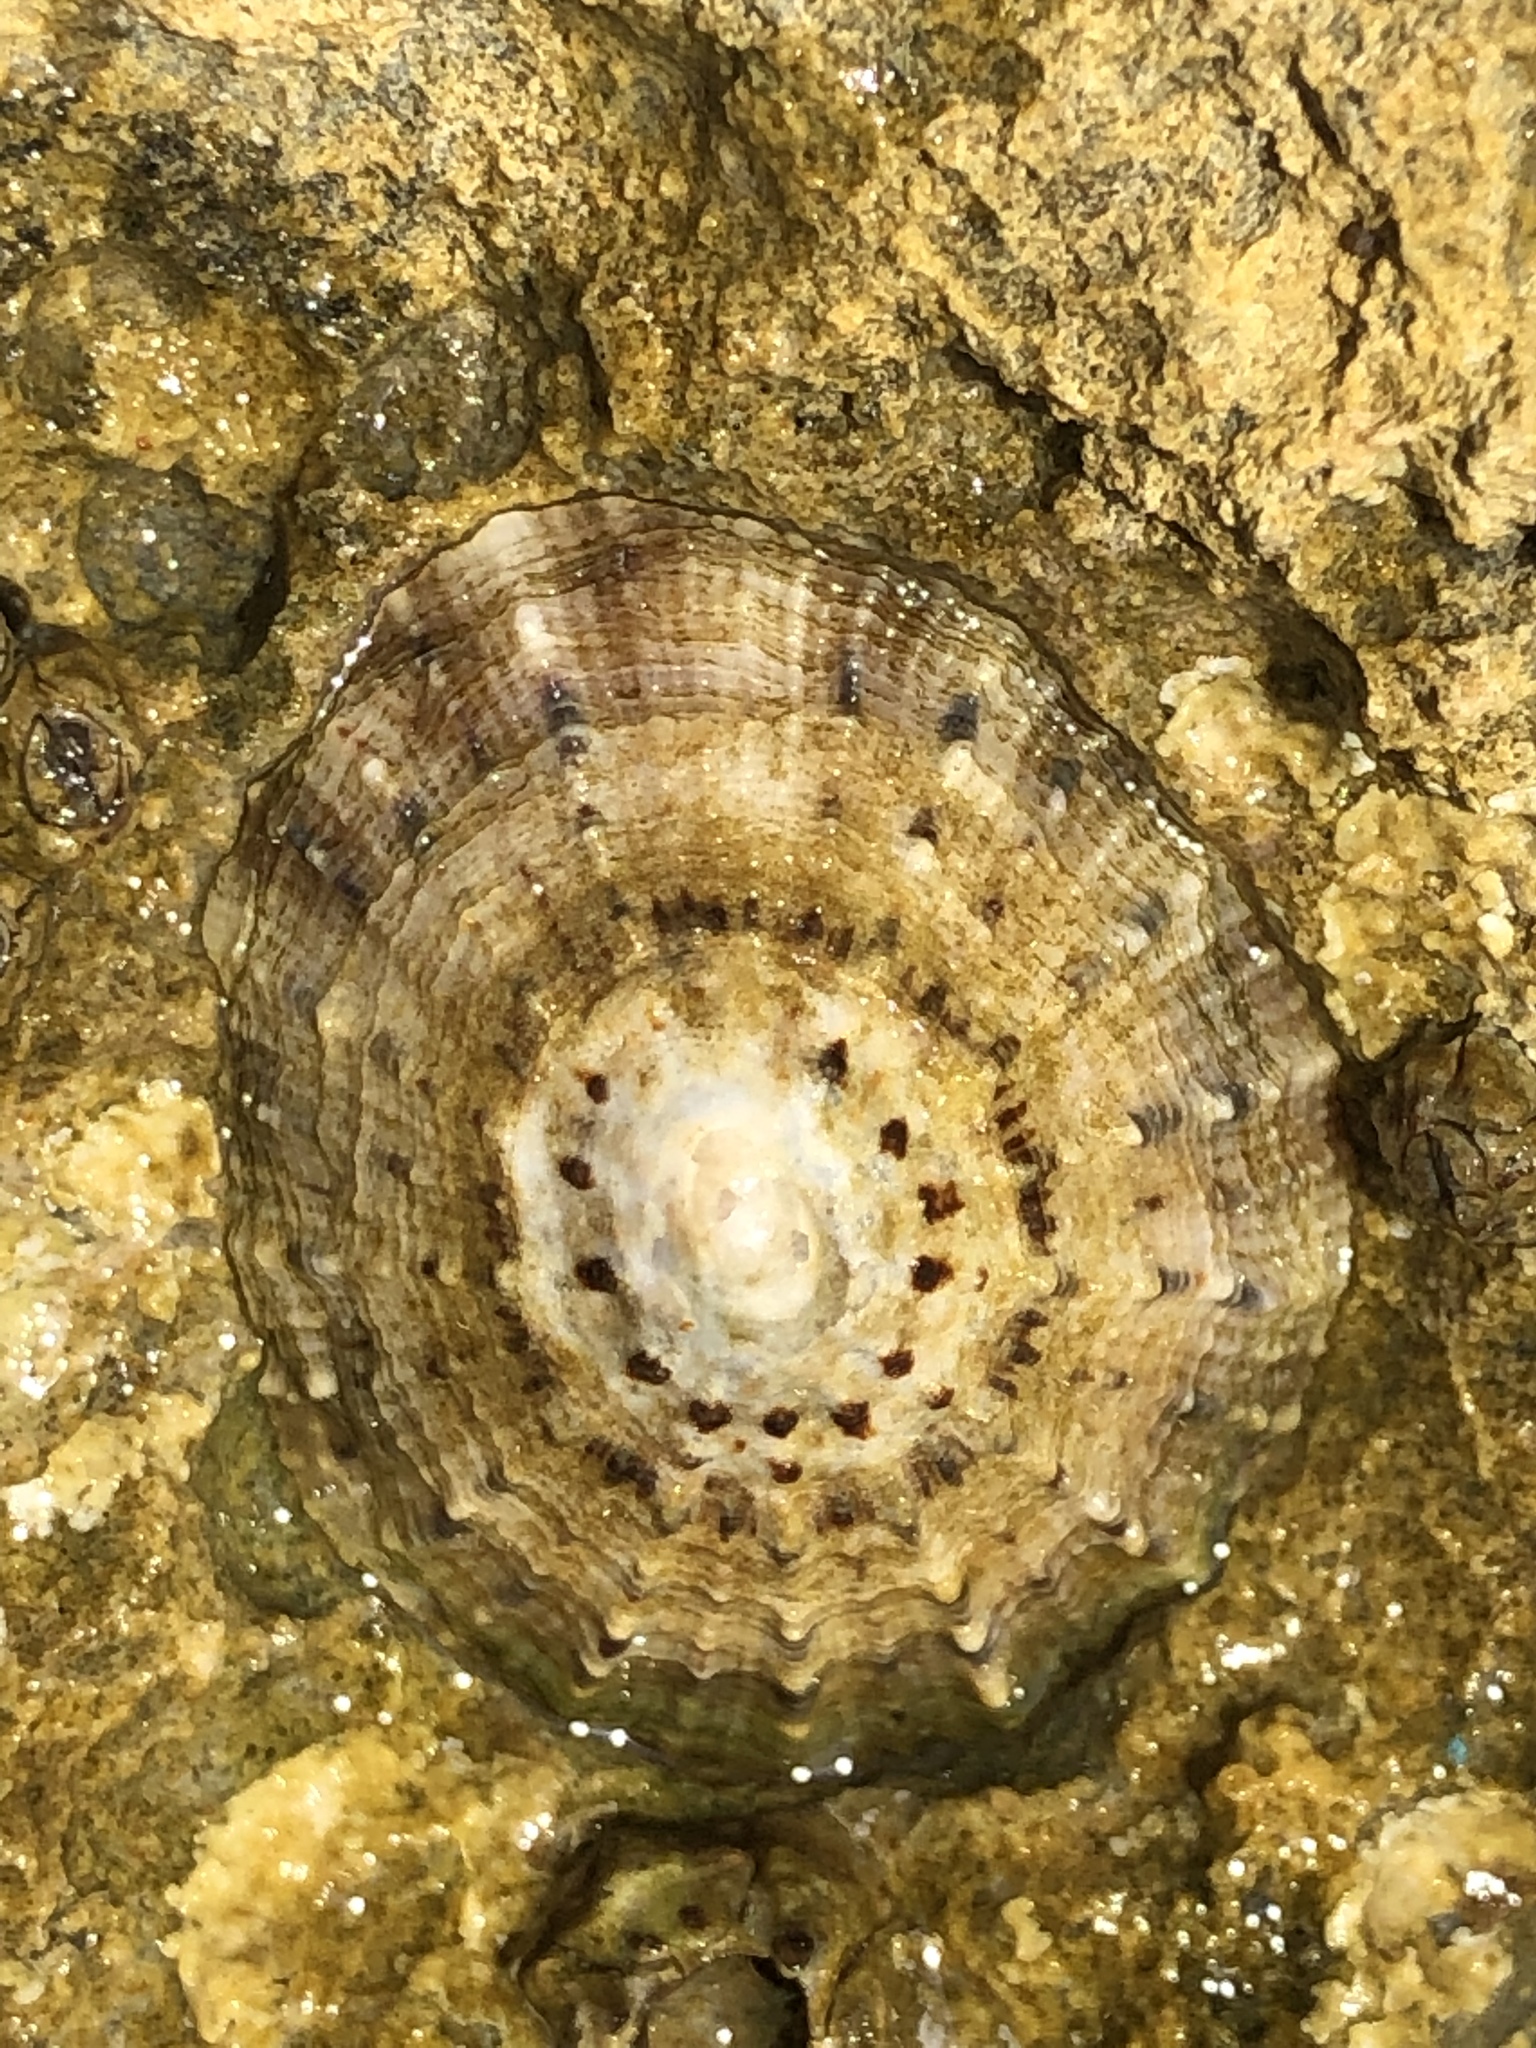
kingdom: Animalia
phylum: Mollusca
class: Gastropoda
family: Patellidae
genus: Patella
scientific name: Patella rustica
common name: Lusitanian limpet
